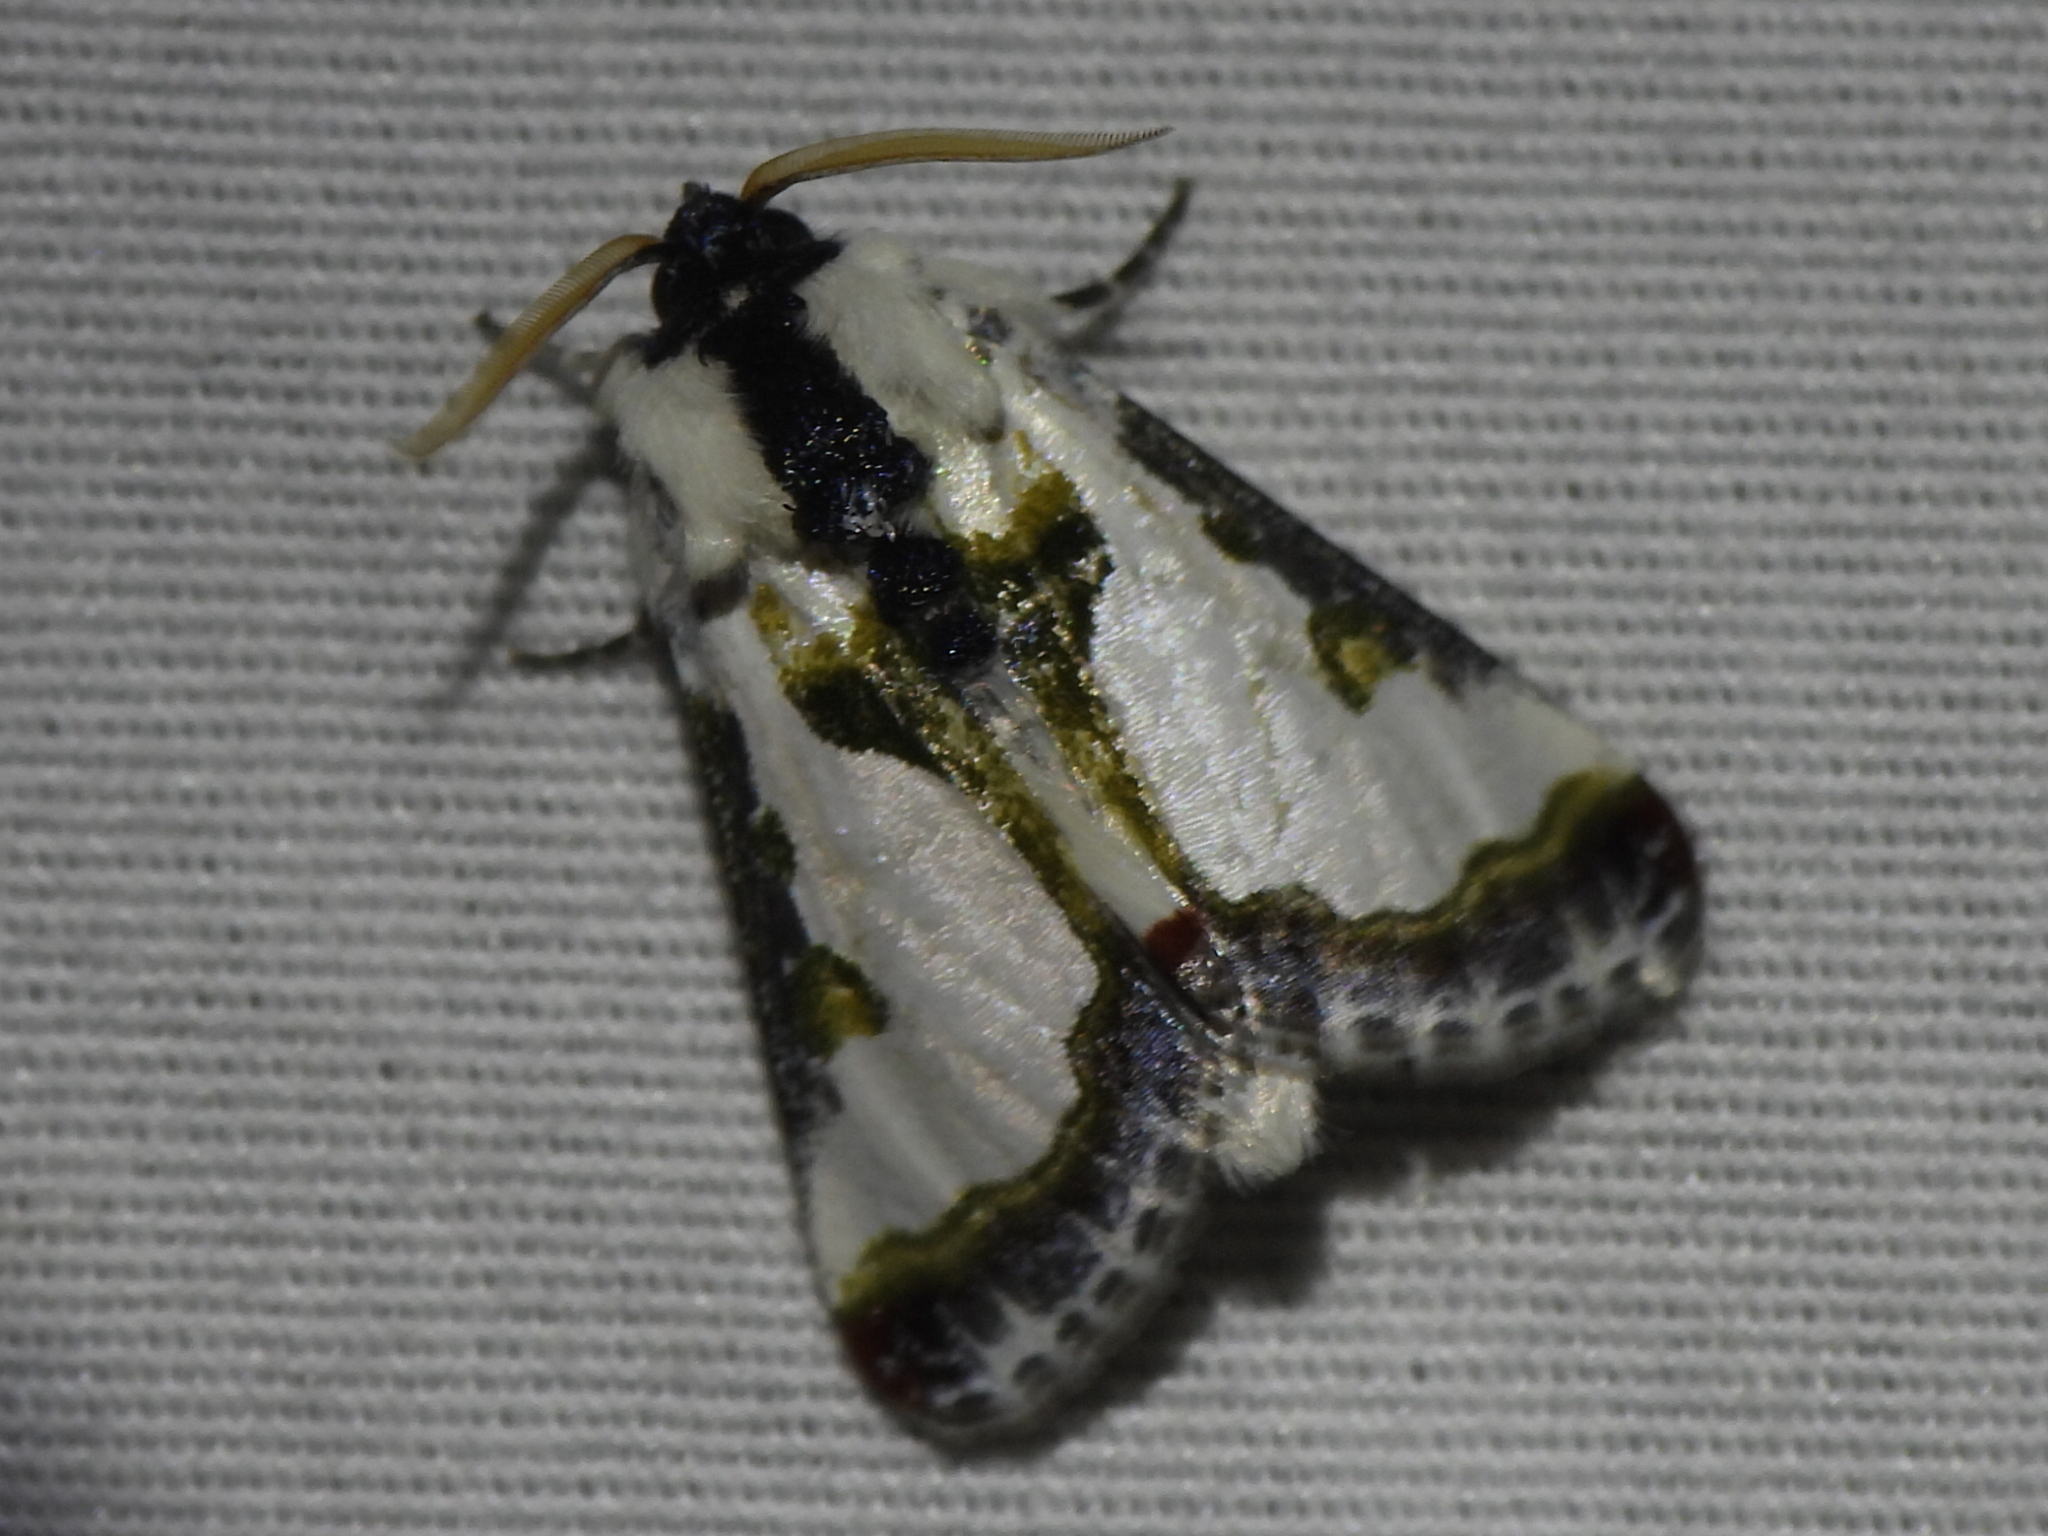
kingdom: Animalia
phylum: Arthropoda
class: Insecta
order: Lepidoptera
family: Noctuidae
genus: Xerociris
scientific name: Xerociris wilsonii
